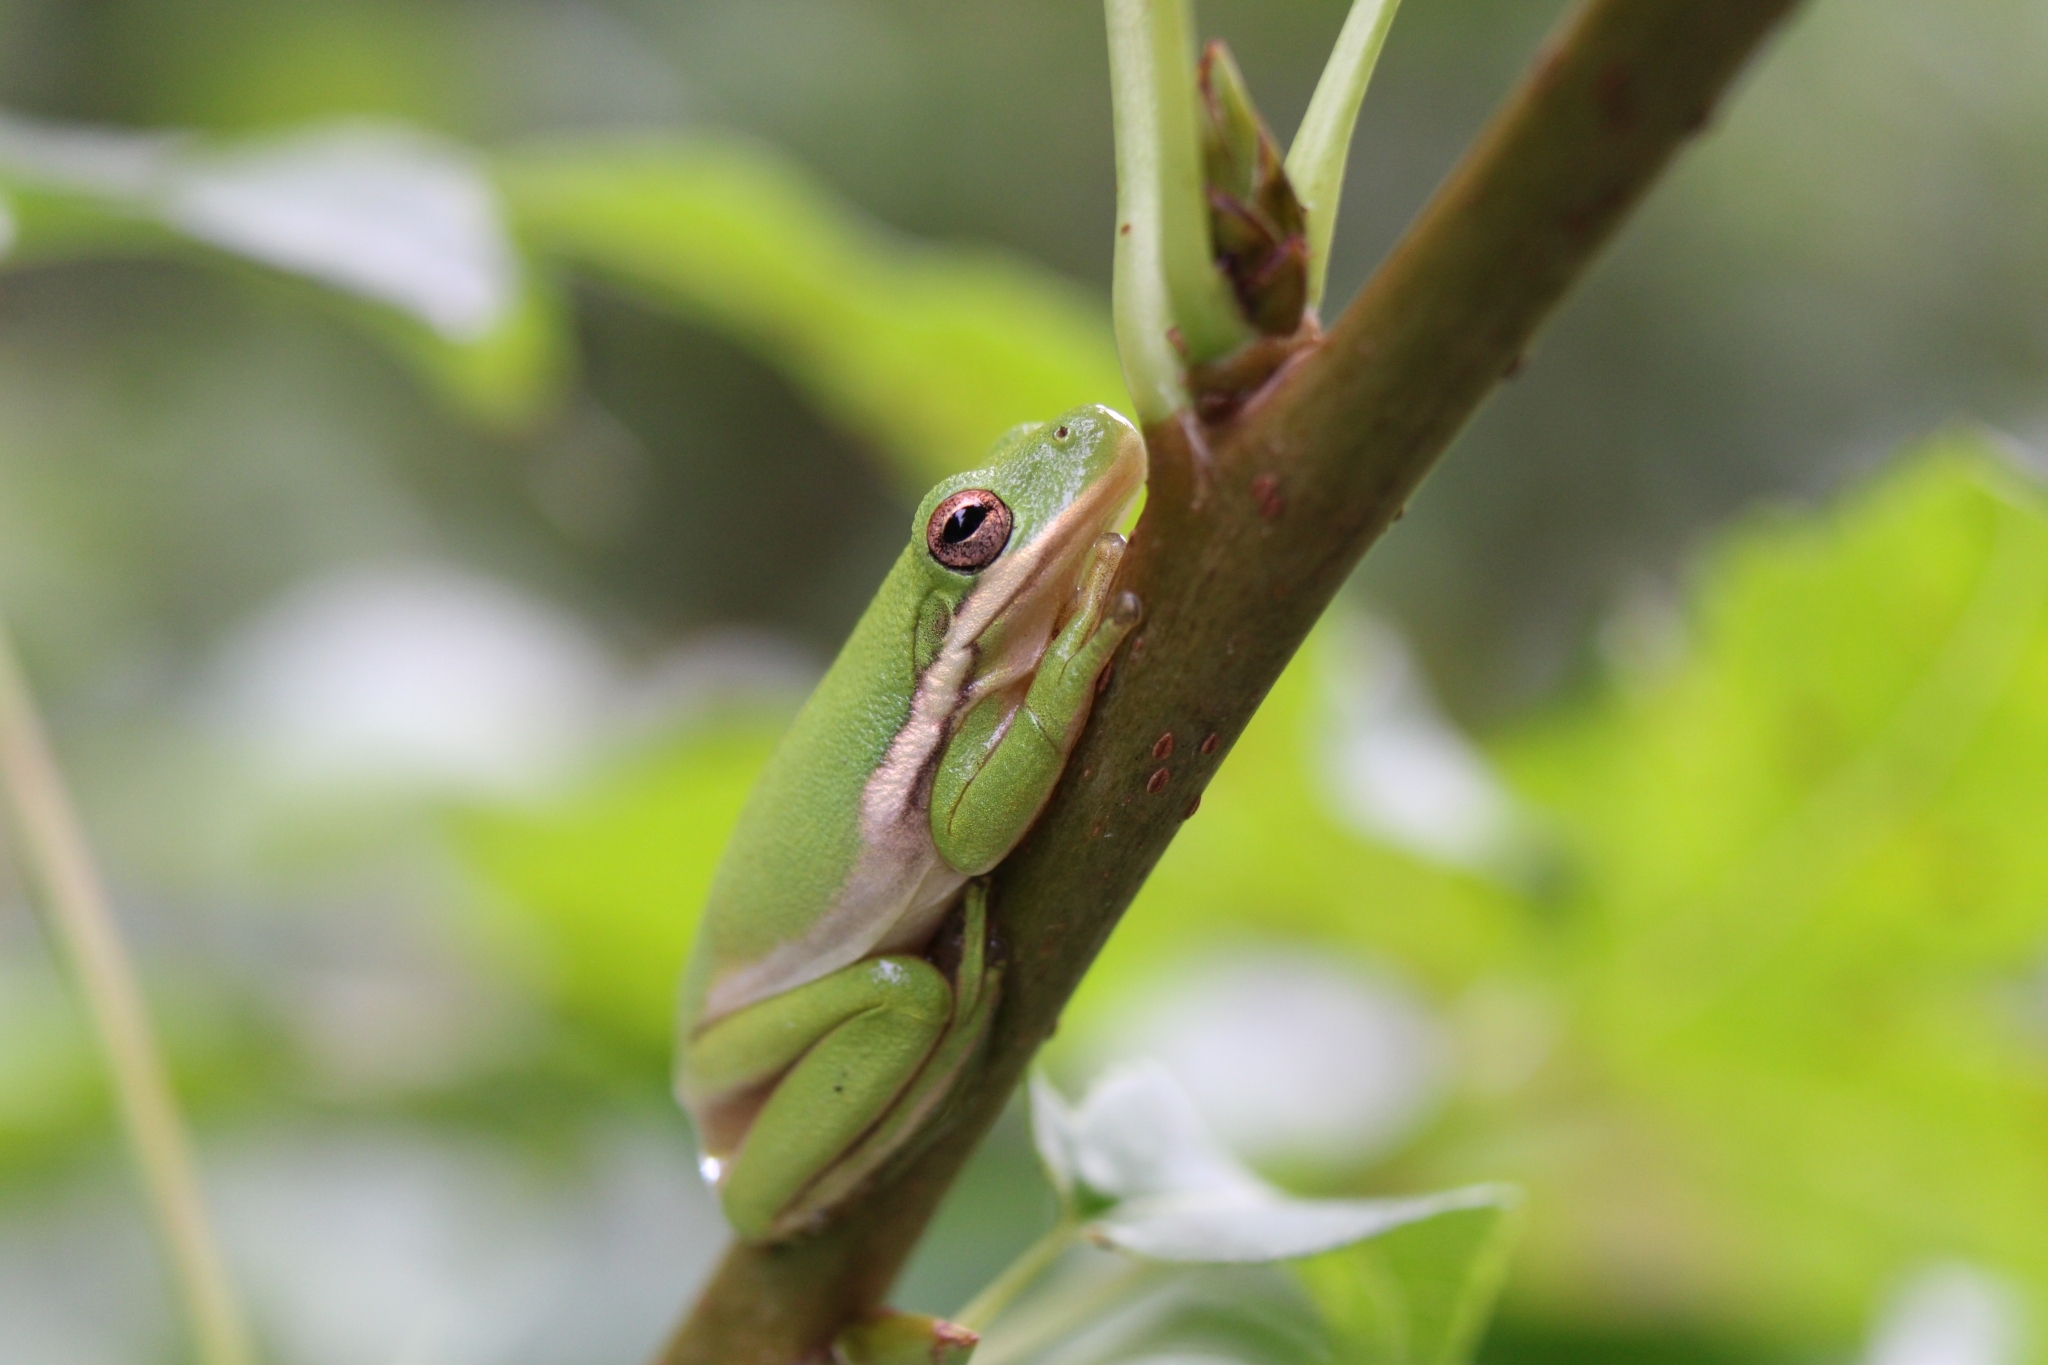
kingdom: Animalia
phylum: Chordata
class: Amphibia
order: Anura
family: Hylidae
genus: Dryophytes
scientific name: Dryophytes cinereus
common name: Green treefrog
